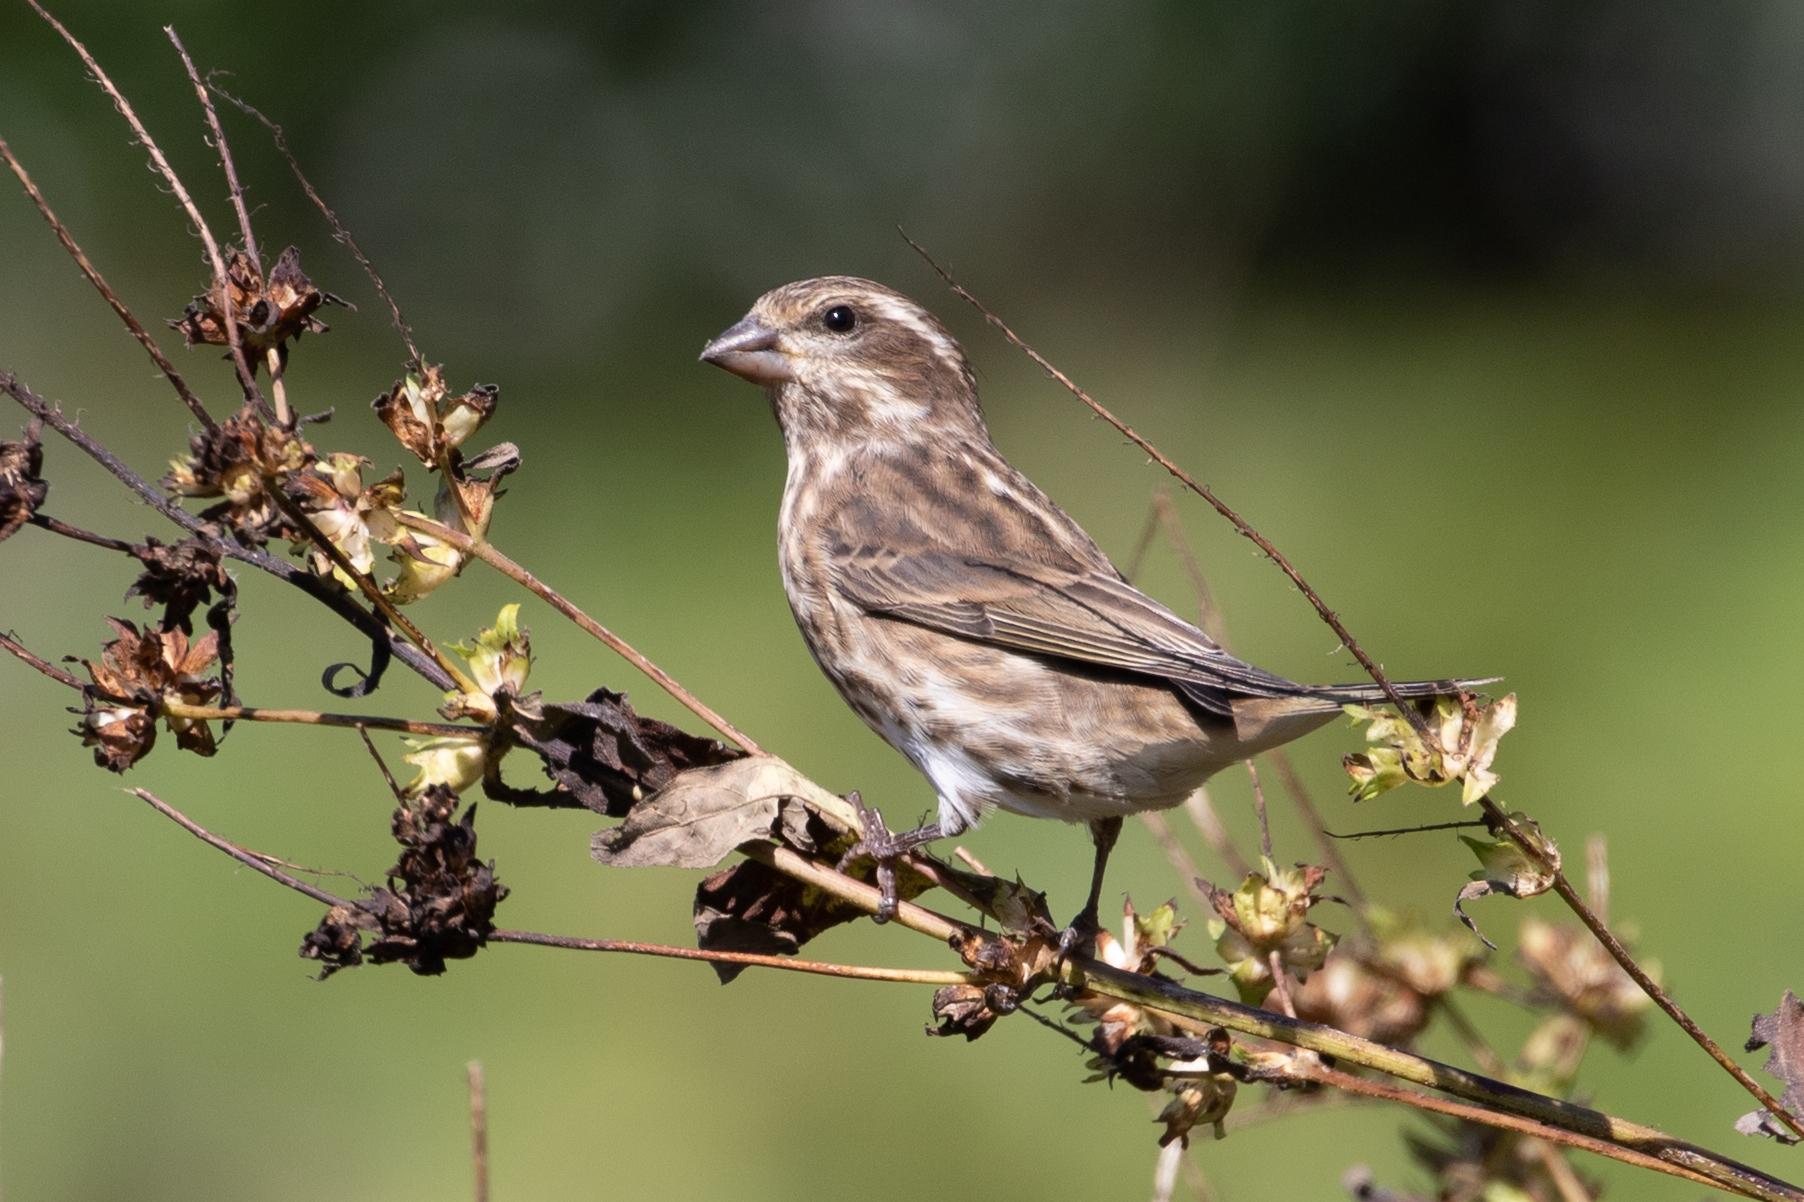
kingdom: Animalia
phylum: Chordata
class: Aves
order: Passeriformes
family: Fringillidae
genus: Haemorhous
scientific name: Haemorhous purpureus
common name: Purple finch
